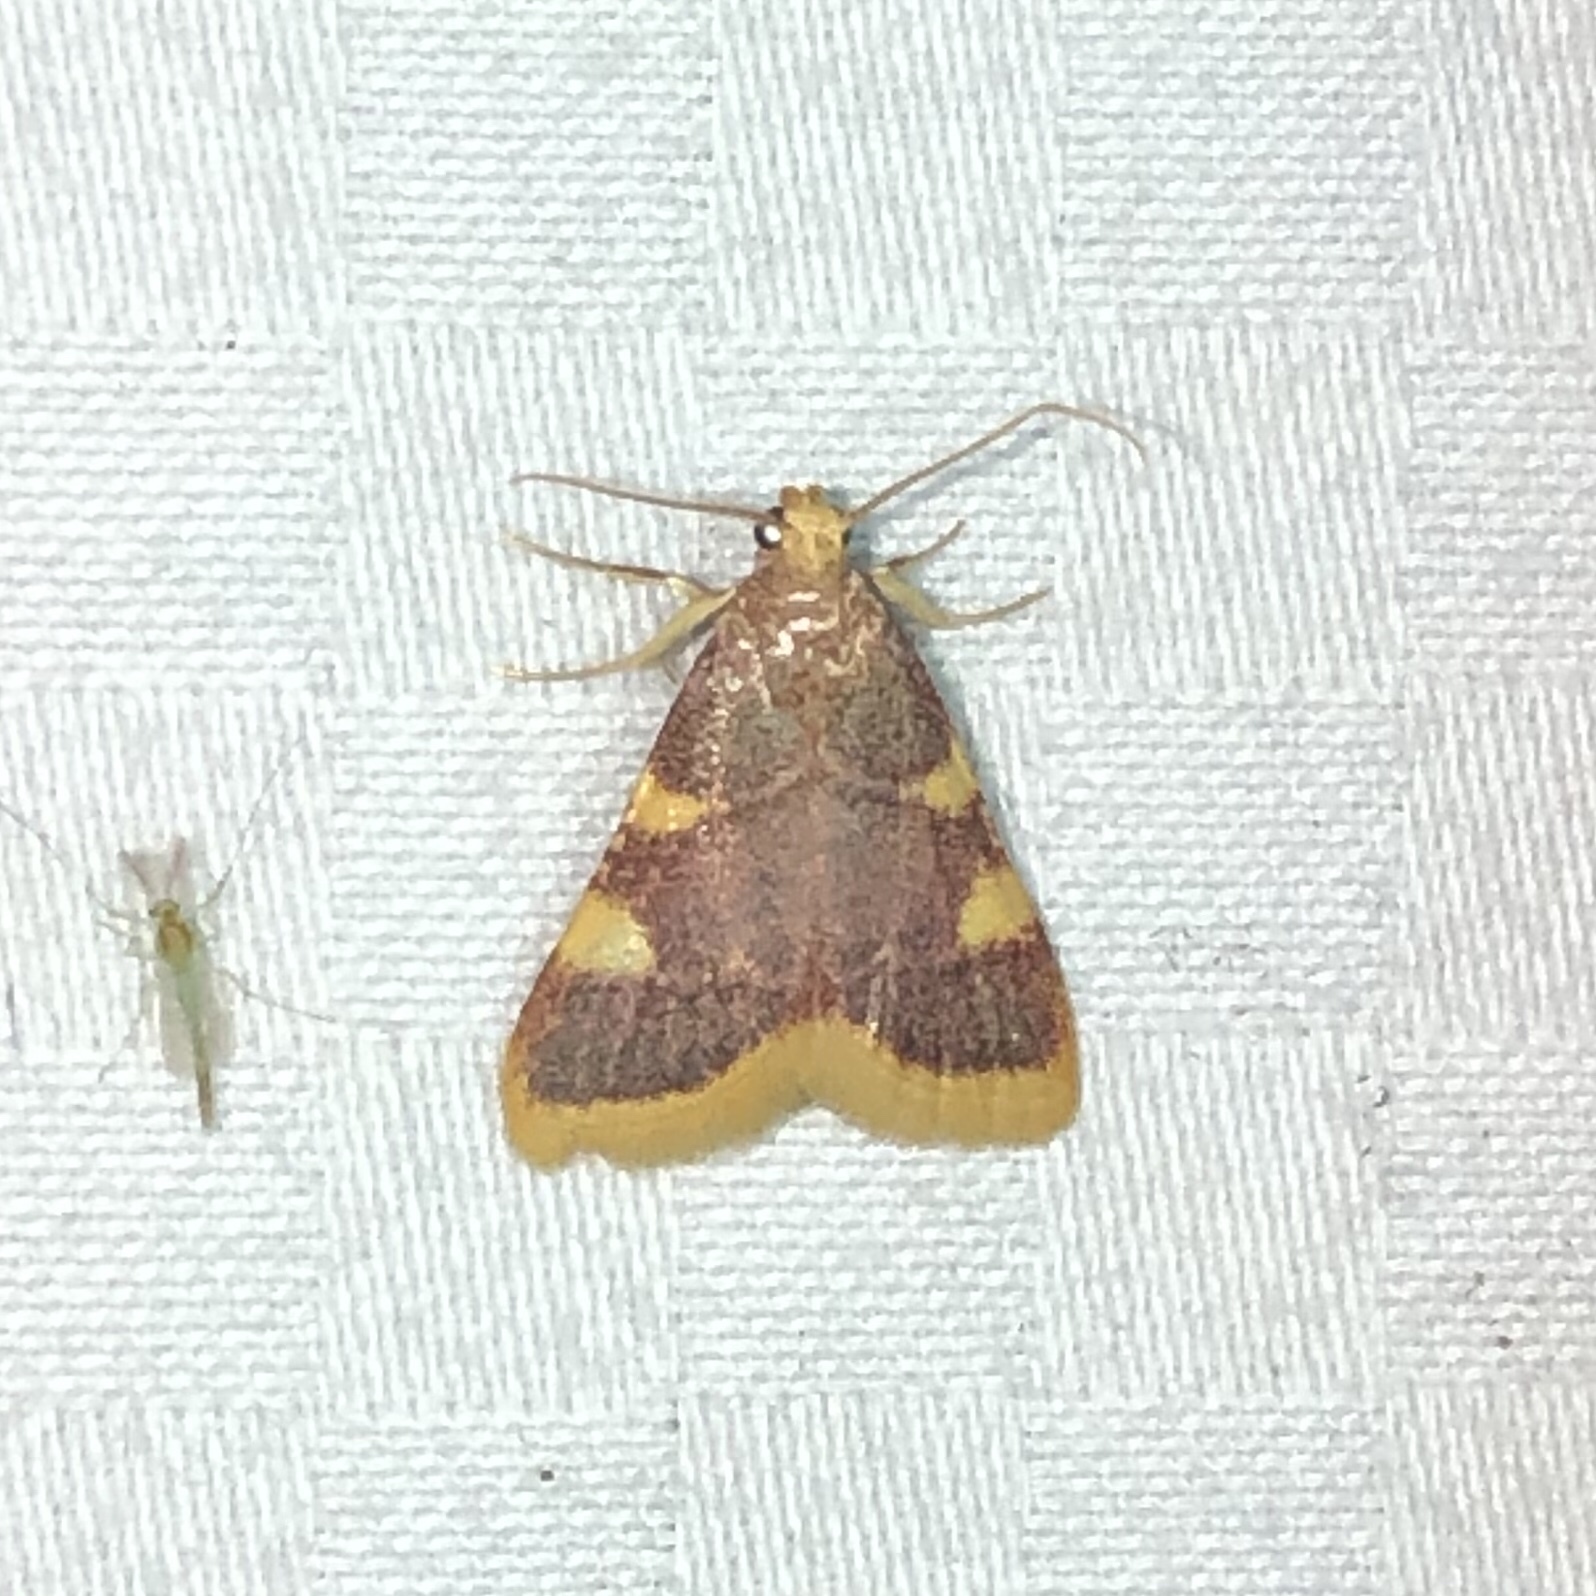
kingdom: Animalia
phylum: Arthropoda
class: Insecta
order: Lepidoptera
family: Pyralidae
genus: Hypsopygia
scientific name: Hypsopygia costalis
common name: Gold triangle
